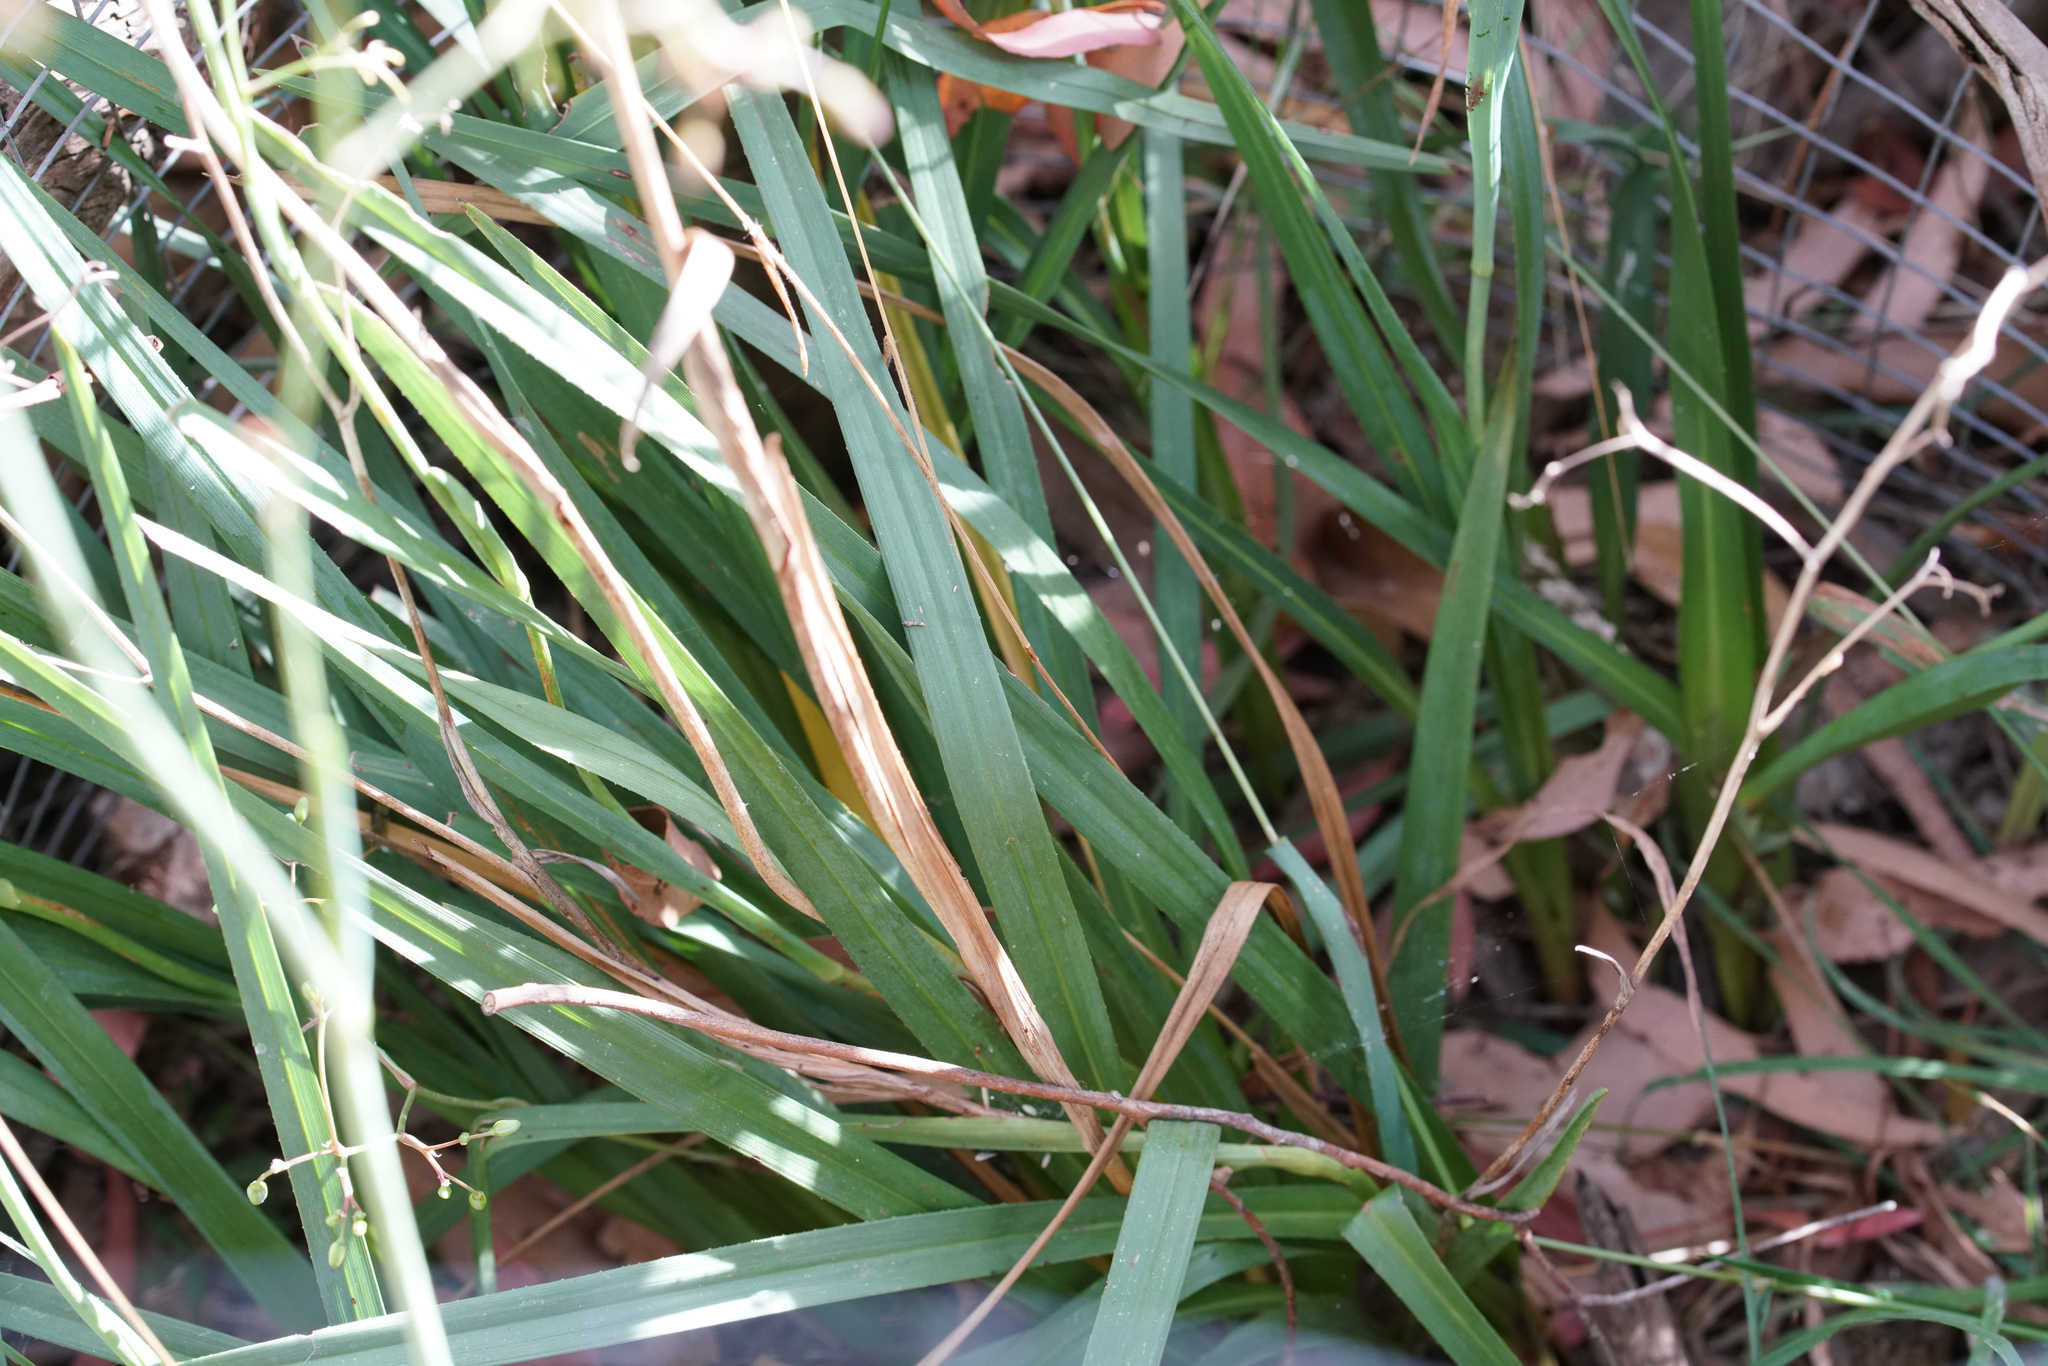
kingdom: Plantae
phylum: Tracheophyta
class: Liliopsida
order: Asparagales
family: Asphodelaceae
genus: Dianella
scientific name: Dianella amoena
